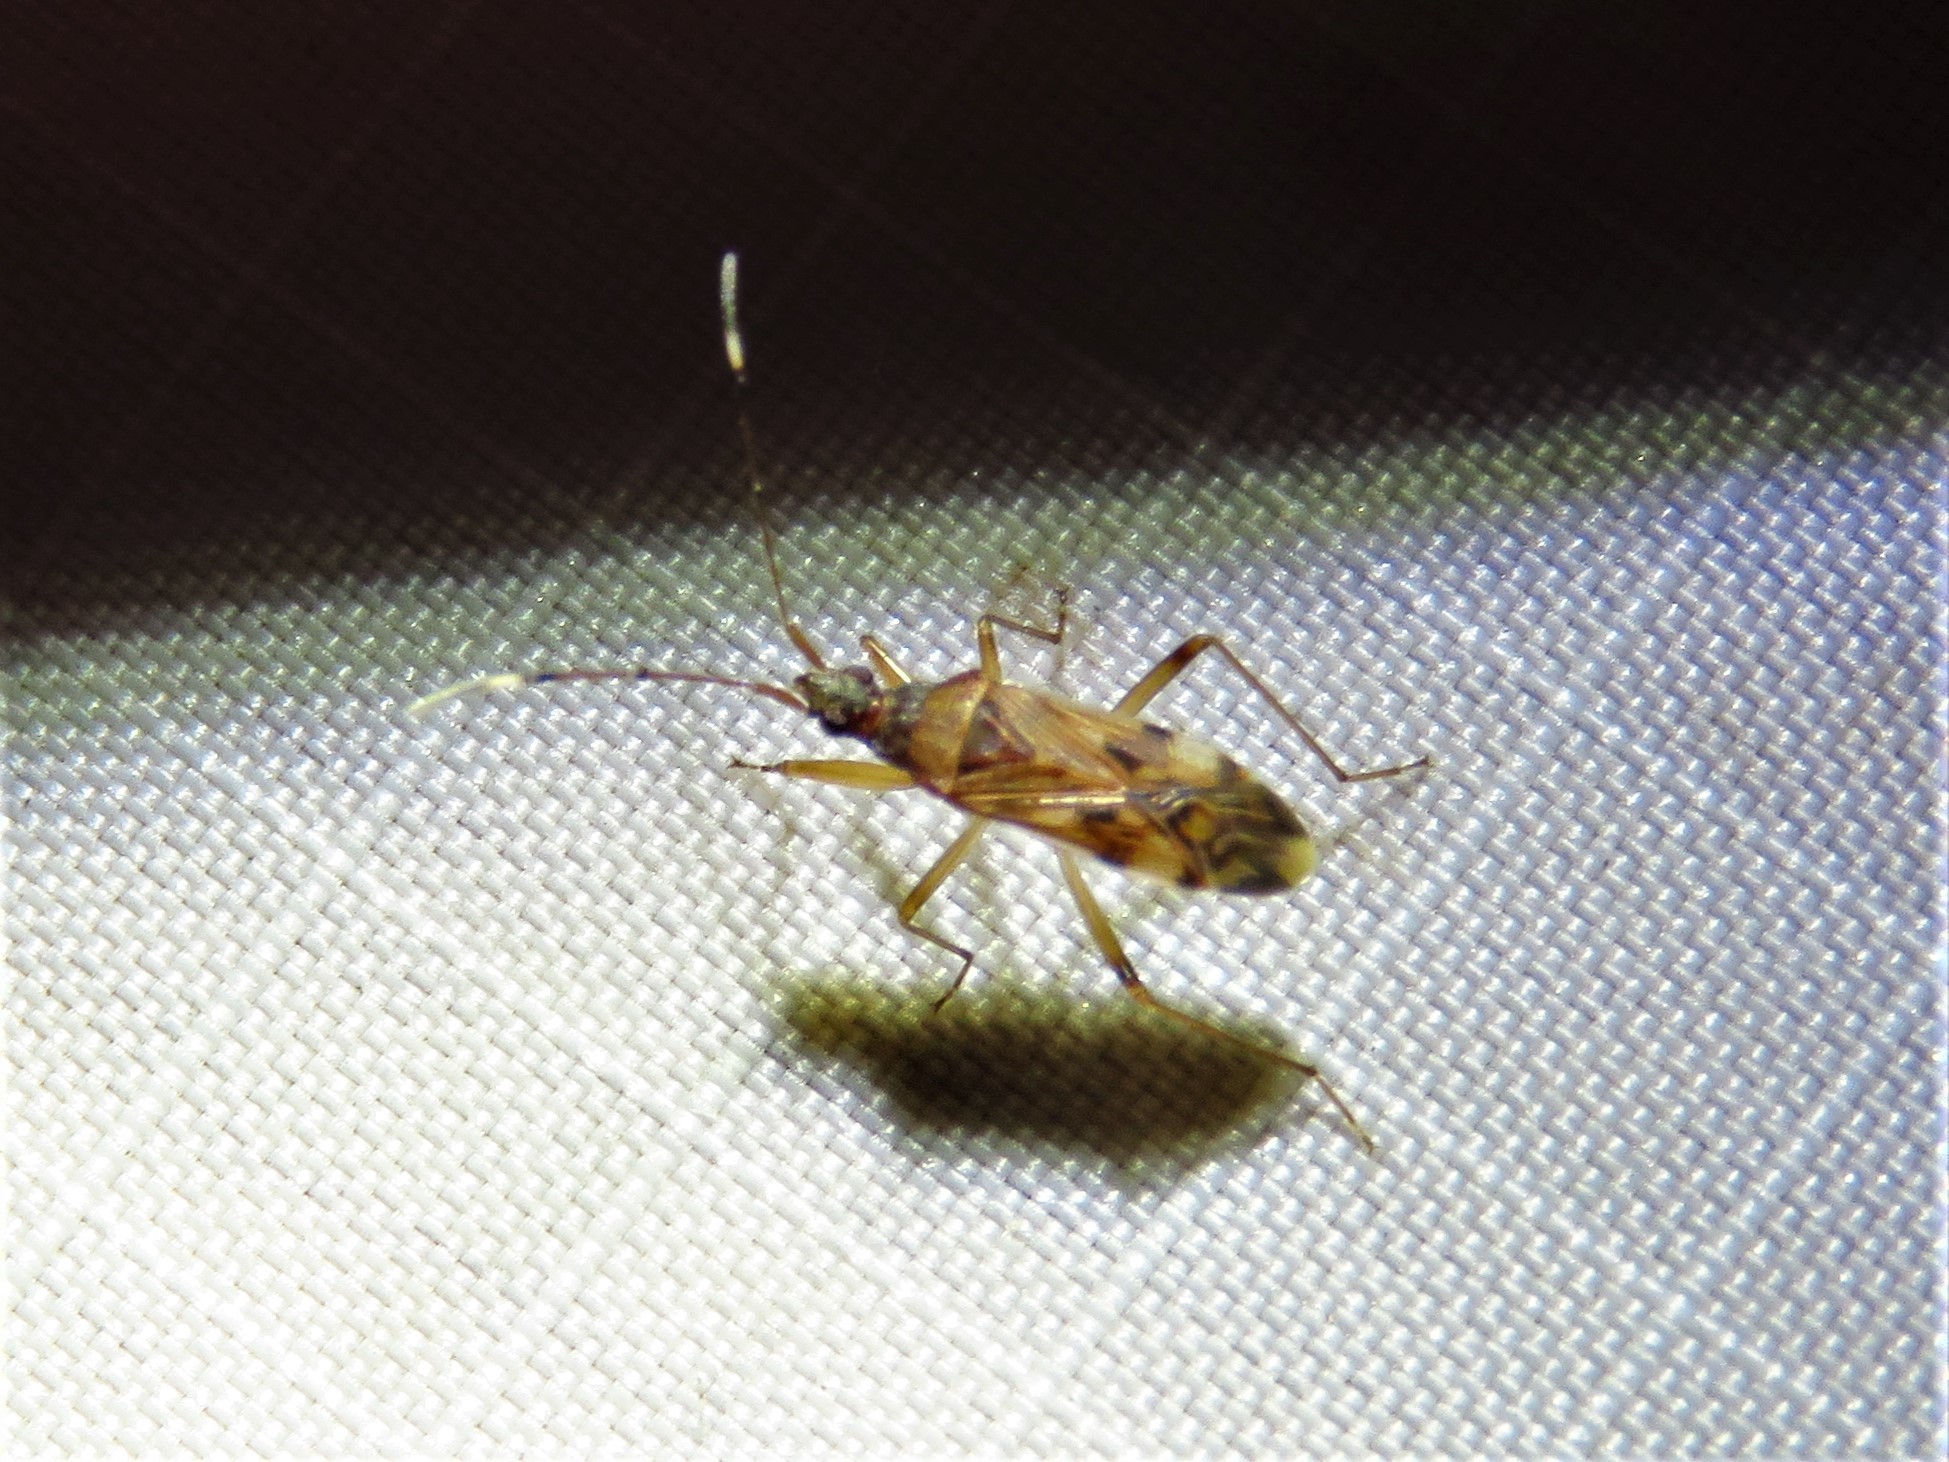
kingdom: Animalia
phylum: Arthropoda
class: Insecta
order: Hemiptera
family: Rhyparochromidae
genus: Ozophora
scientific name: Ozophora picturata
